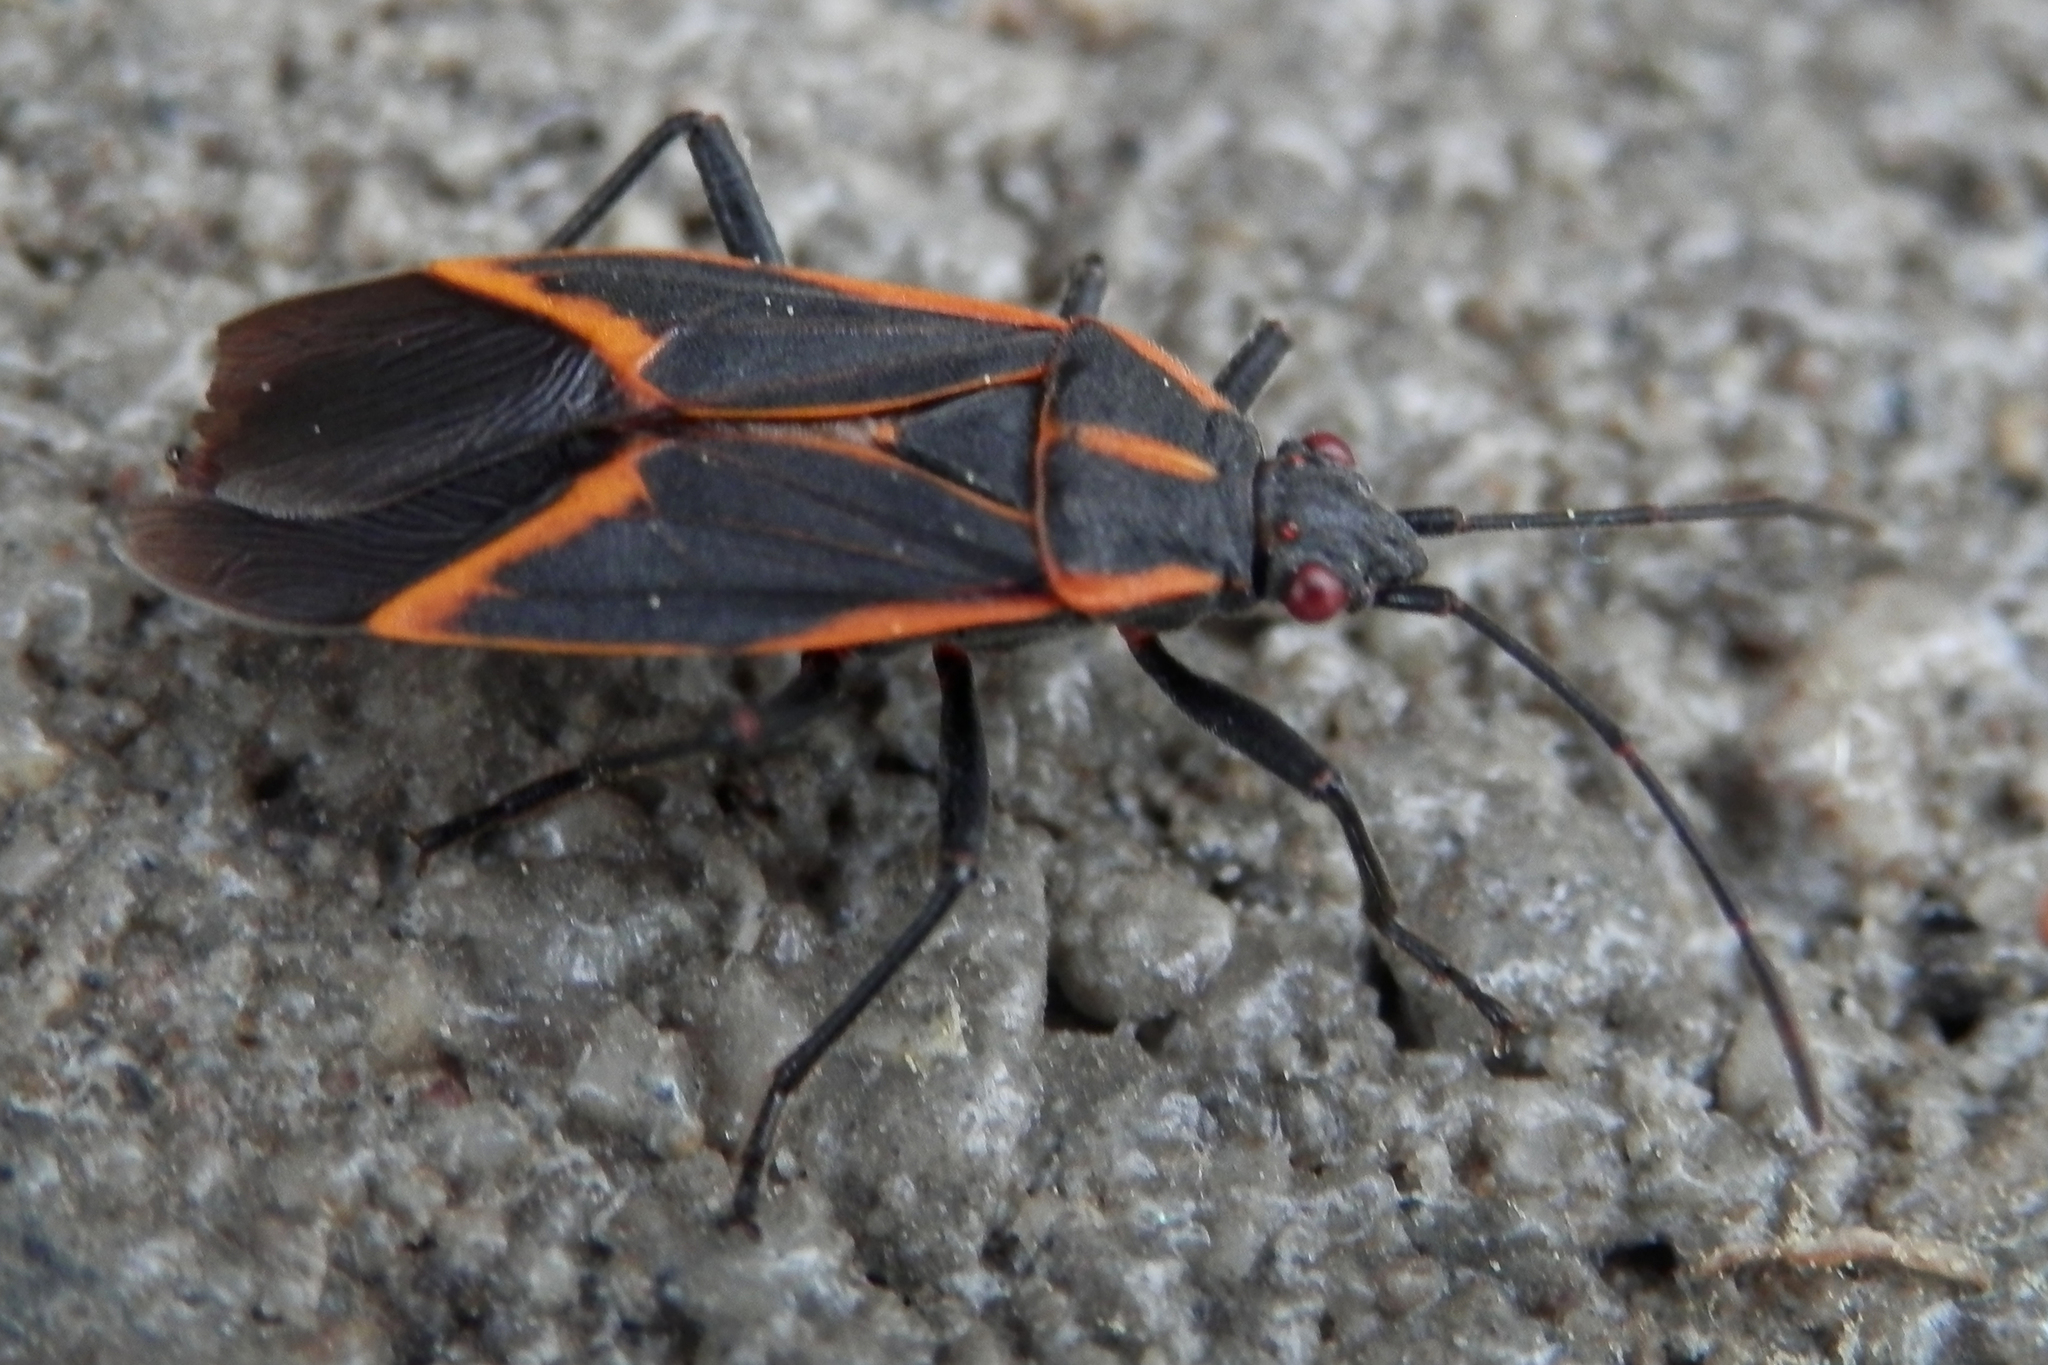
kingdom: Animalia
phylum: Arthropoda
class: Insecta
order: Hemiptera
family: Rhopalidae
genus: Boisea
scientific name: Boisea trivittata
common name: Boxelder bug
